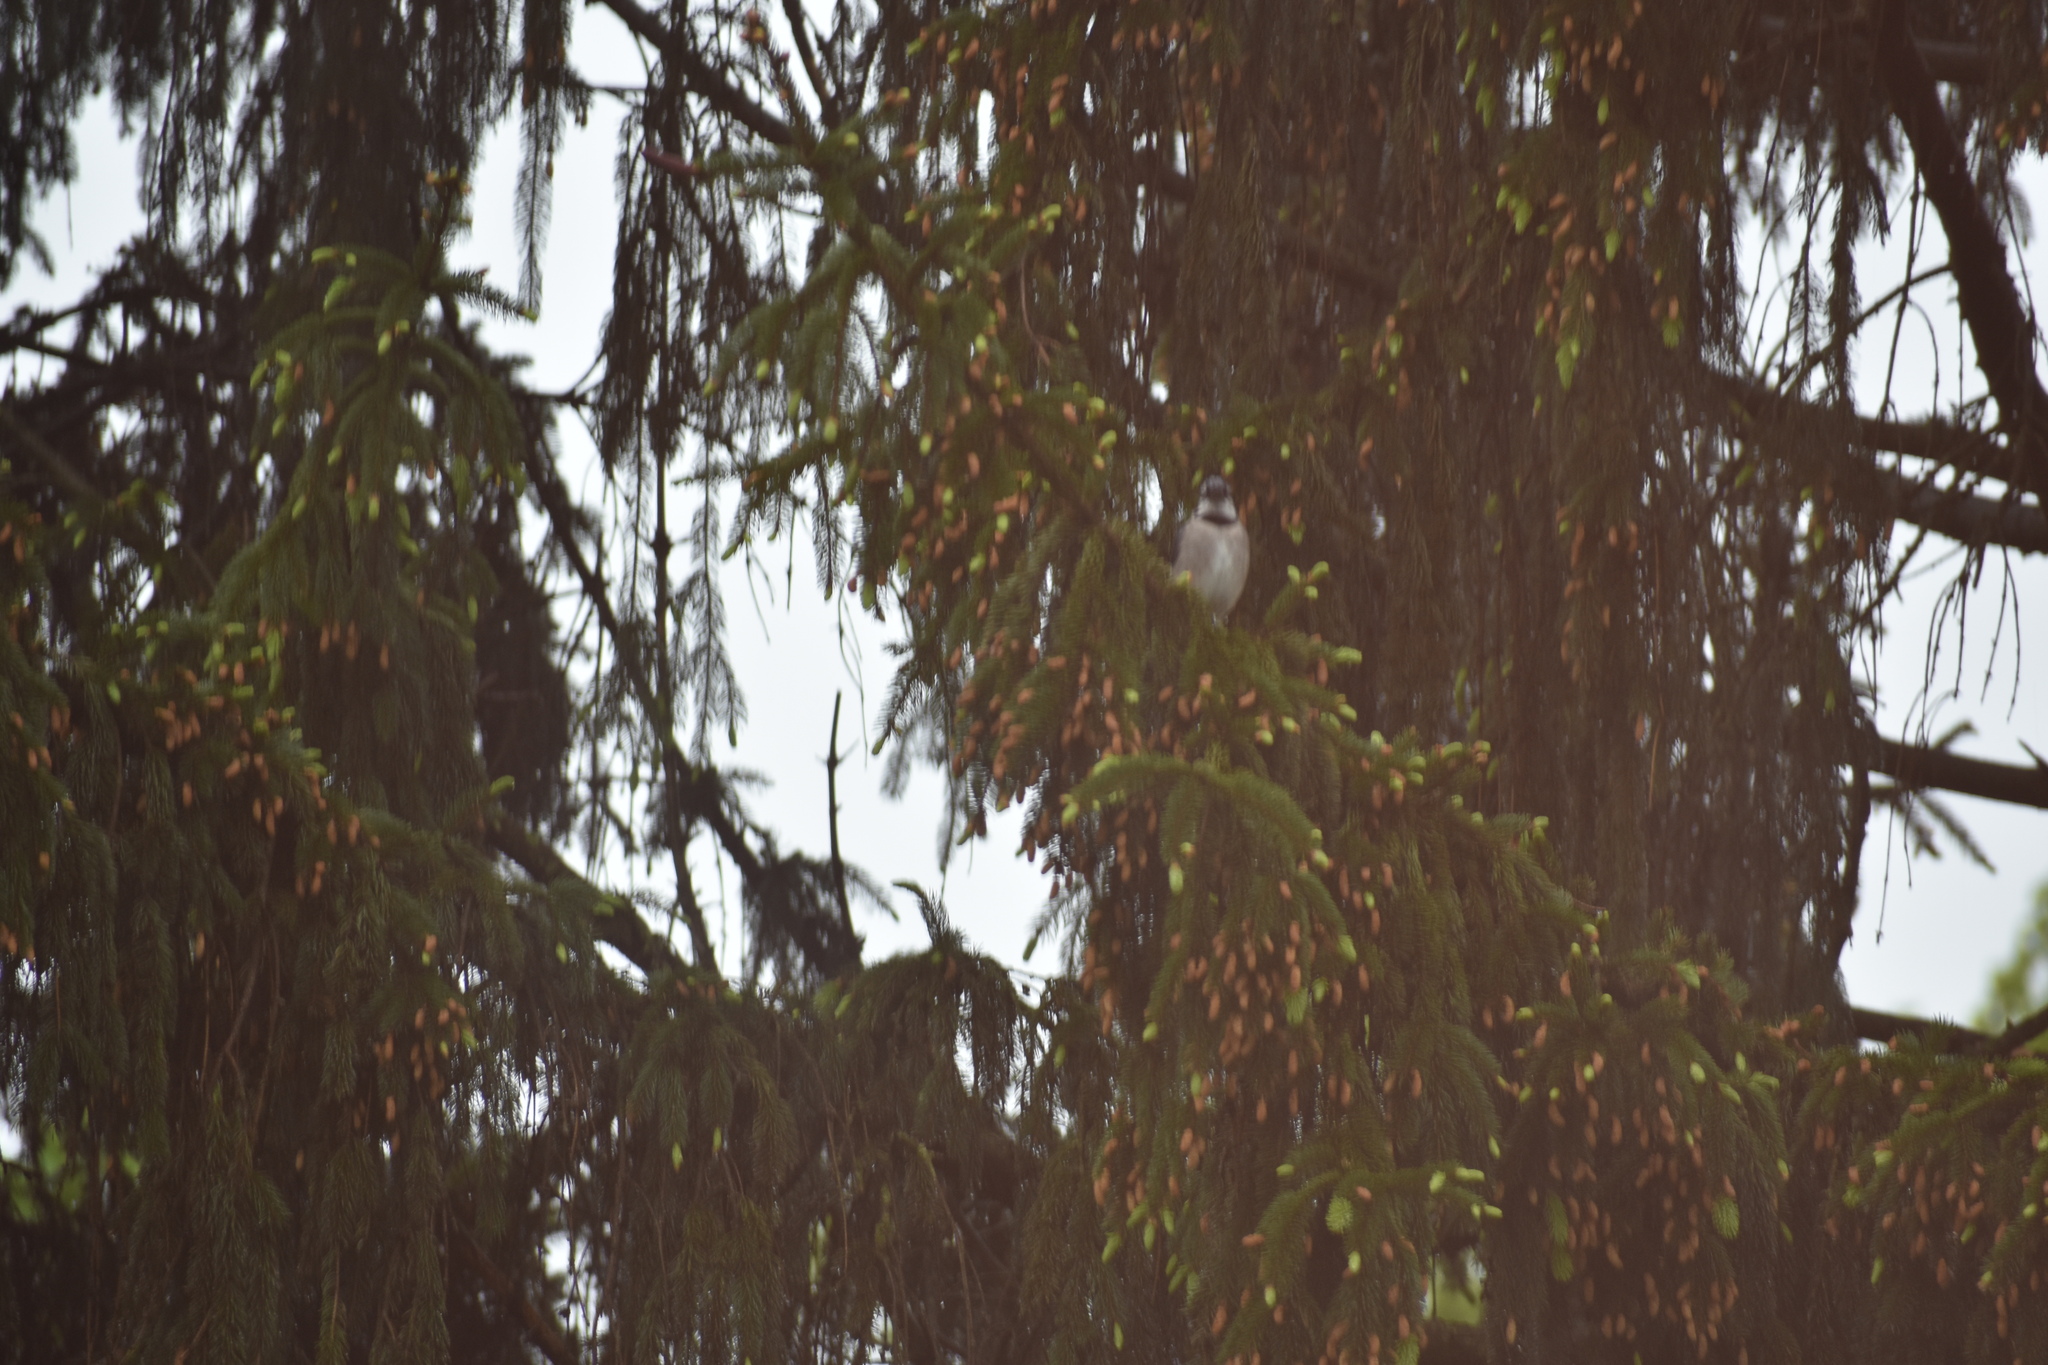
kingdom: Animalia
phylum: Chordata
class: Aves
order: Passeriformes
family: Corvidae
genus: Cyanocitta
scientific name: Cyanocitta cristata
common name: Blue jay
